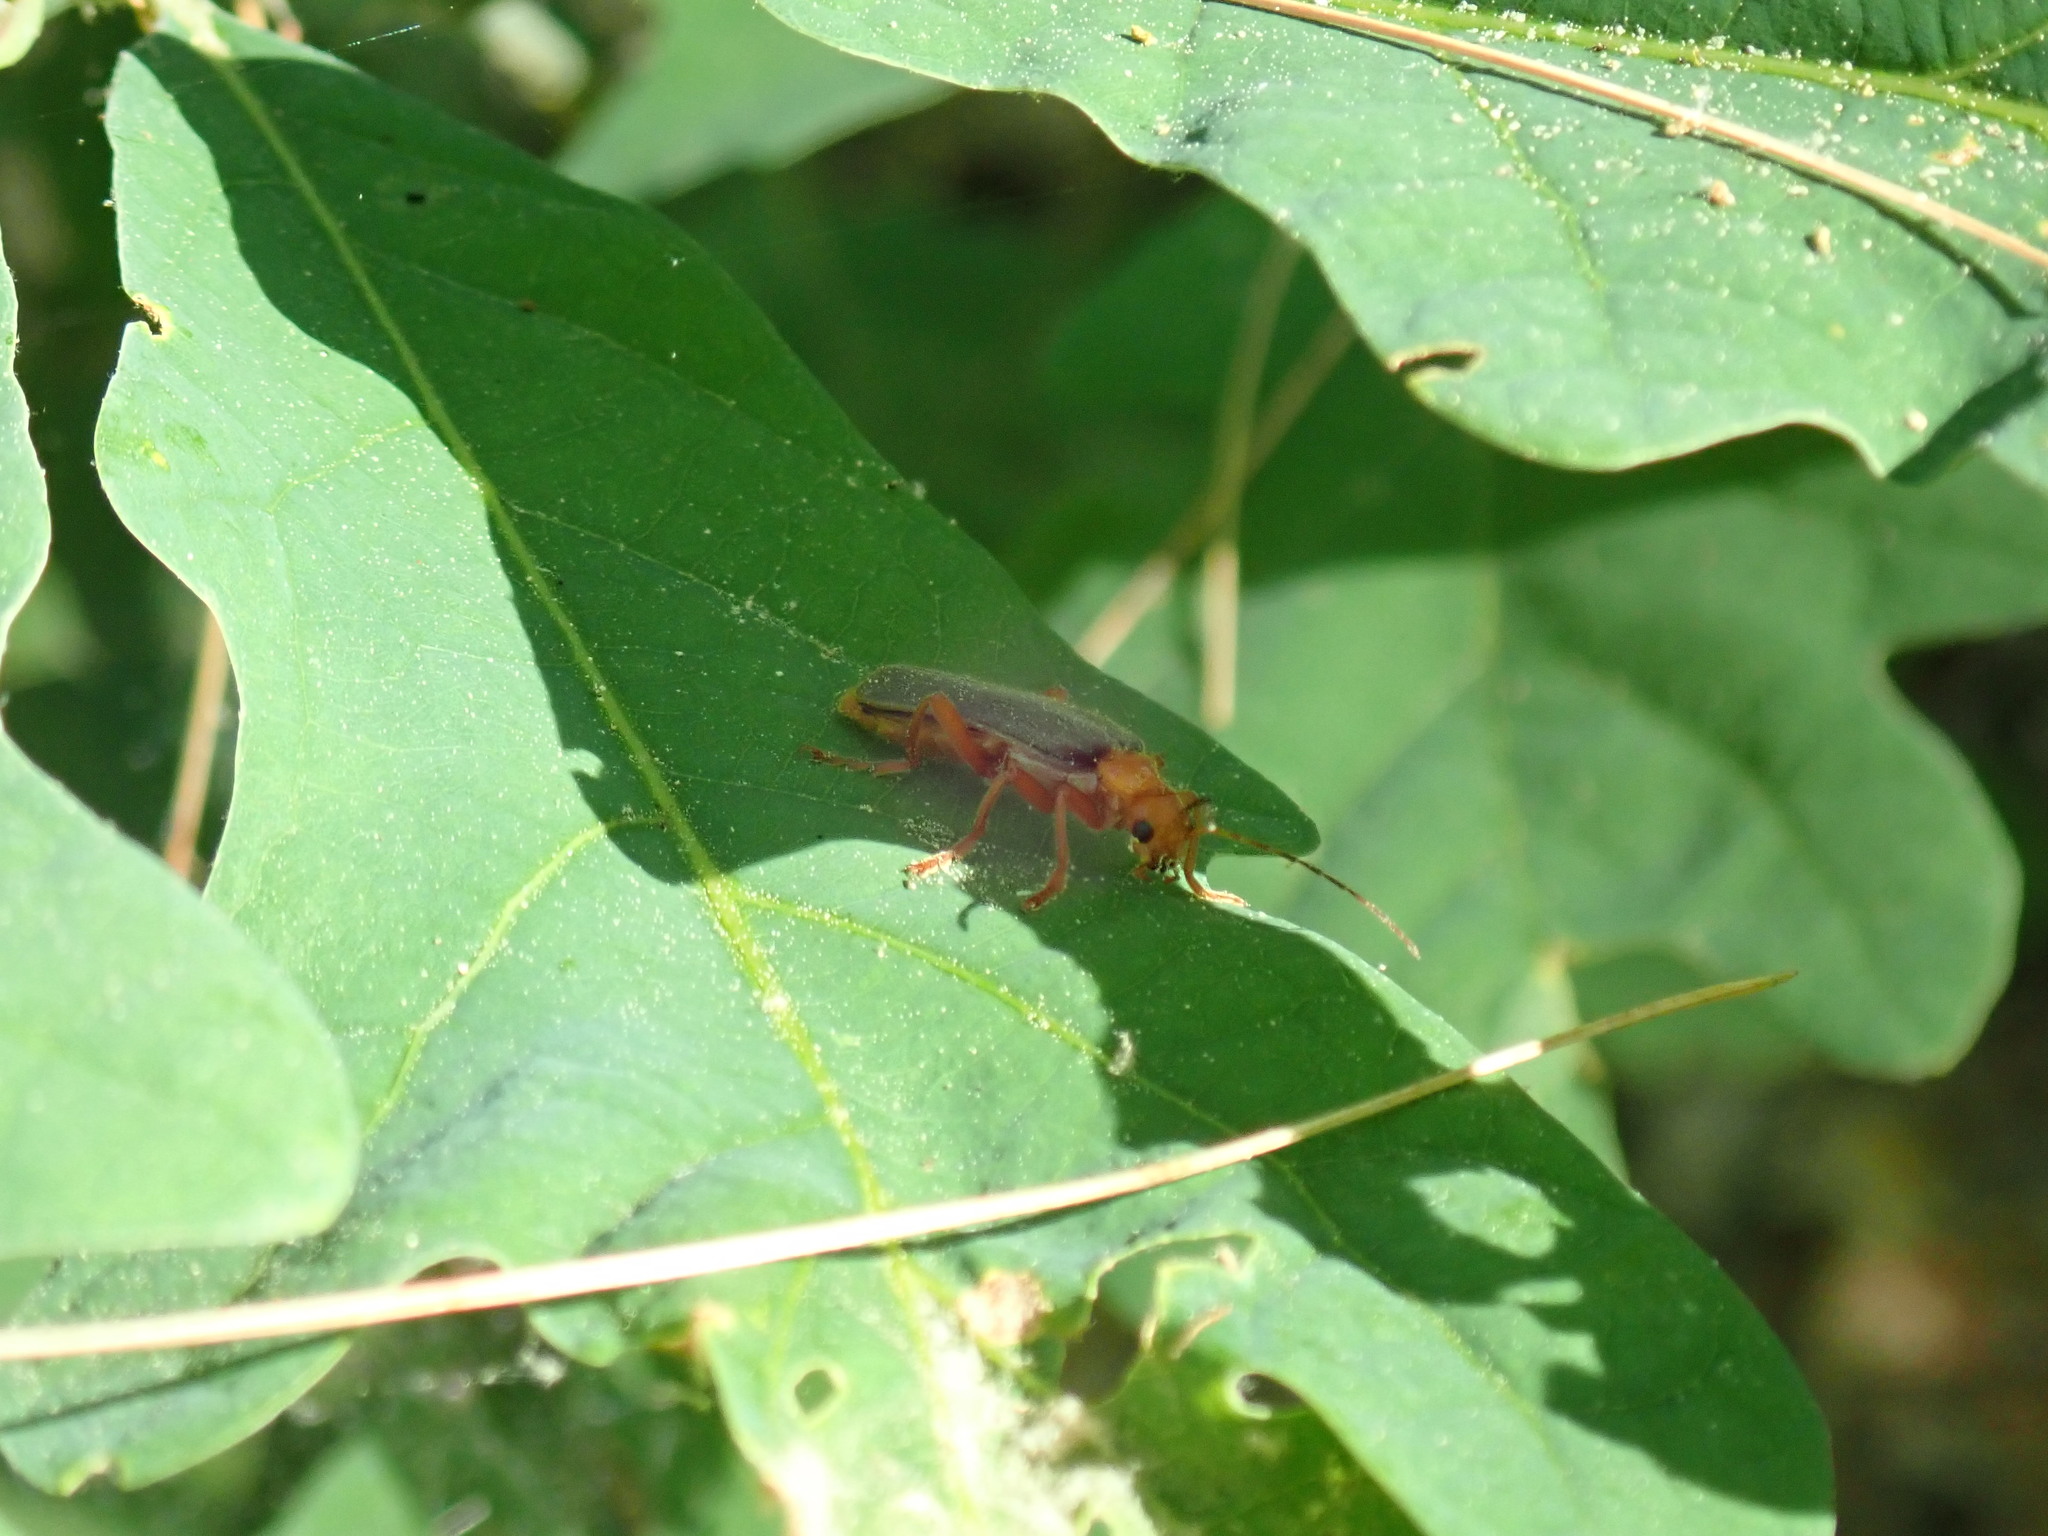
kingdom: Animalia
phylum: Arthropoda
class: Insecta
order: Coleoptera
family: Cantharidae
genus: Pacificanthia
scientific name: Pacificanthia rotundicollis
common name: Brown leatherwing beetle
